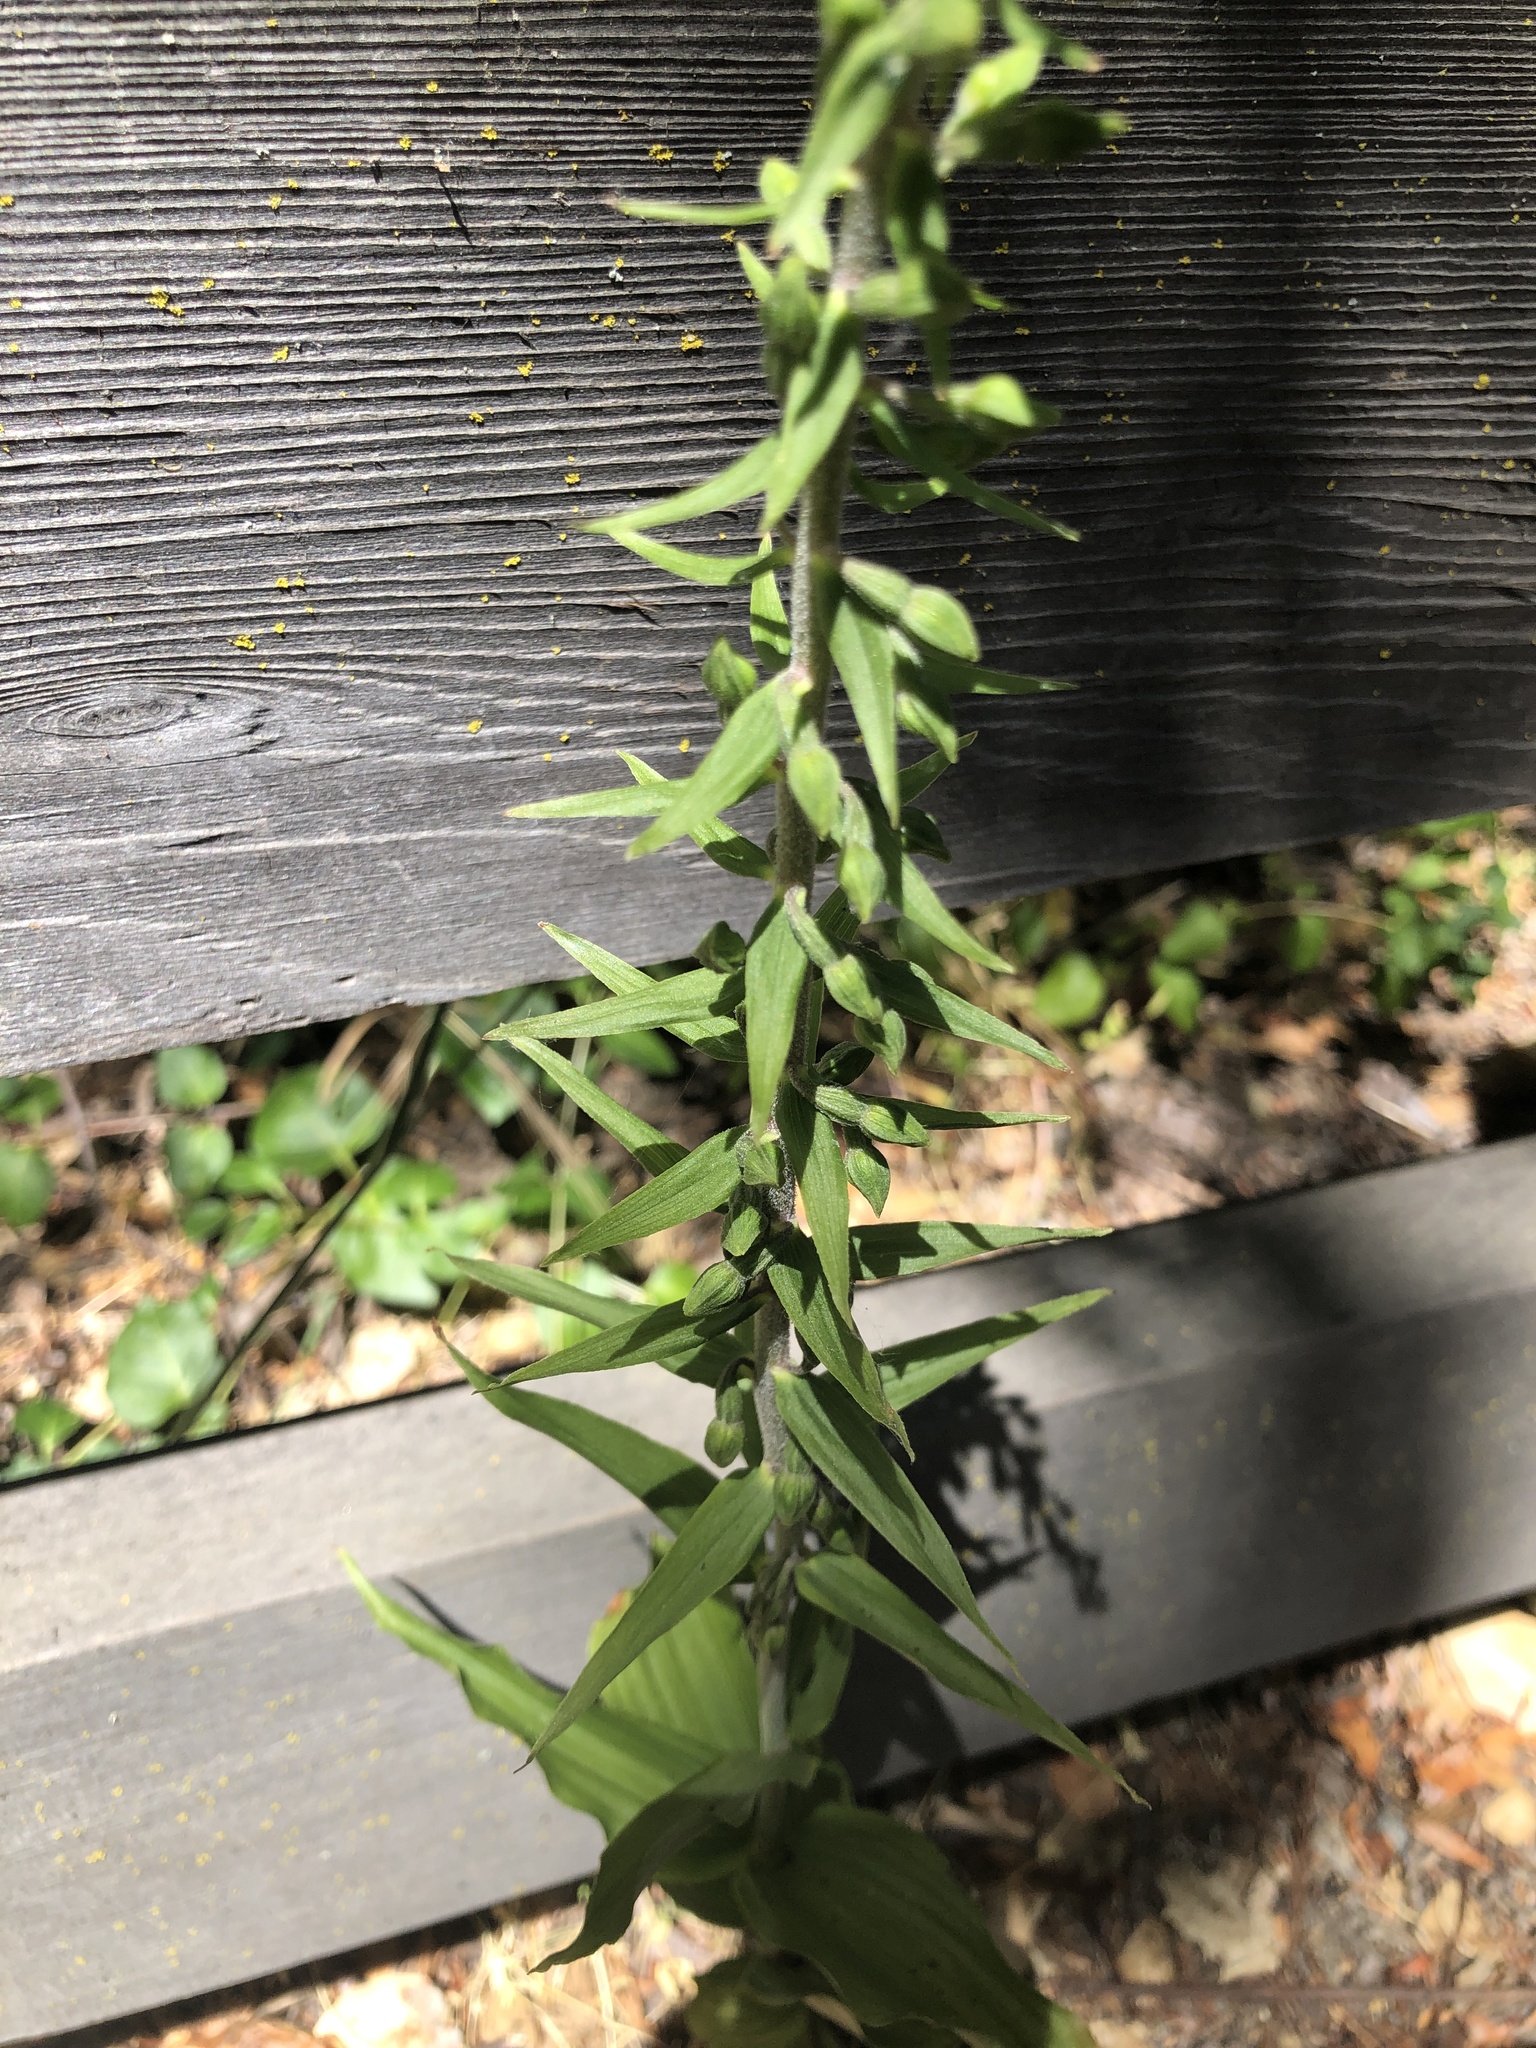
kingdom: Plantae
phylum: Tracheophyta
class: Liliopsida
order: Asparagales
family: Orchidaceae
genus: Epipactis
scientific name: Epipactis helleborine
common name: Broad-leaved helleborine
